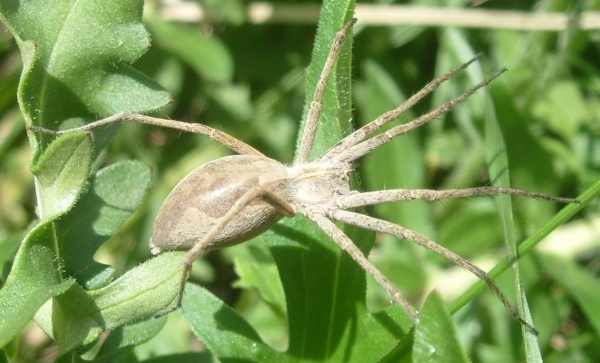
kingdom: Animalia
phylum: Arthropoda
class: Arachnida
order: Araneae
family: Pisauridae
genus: Pisaura
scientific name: Pisaura mirabilis
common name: Tent spider
